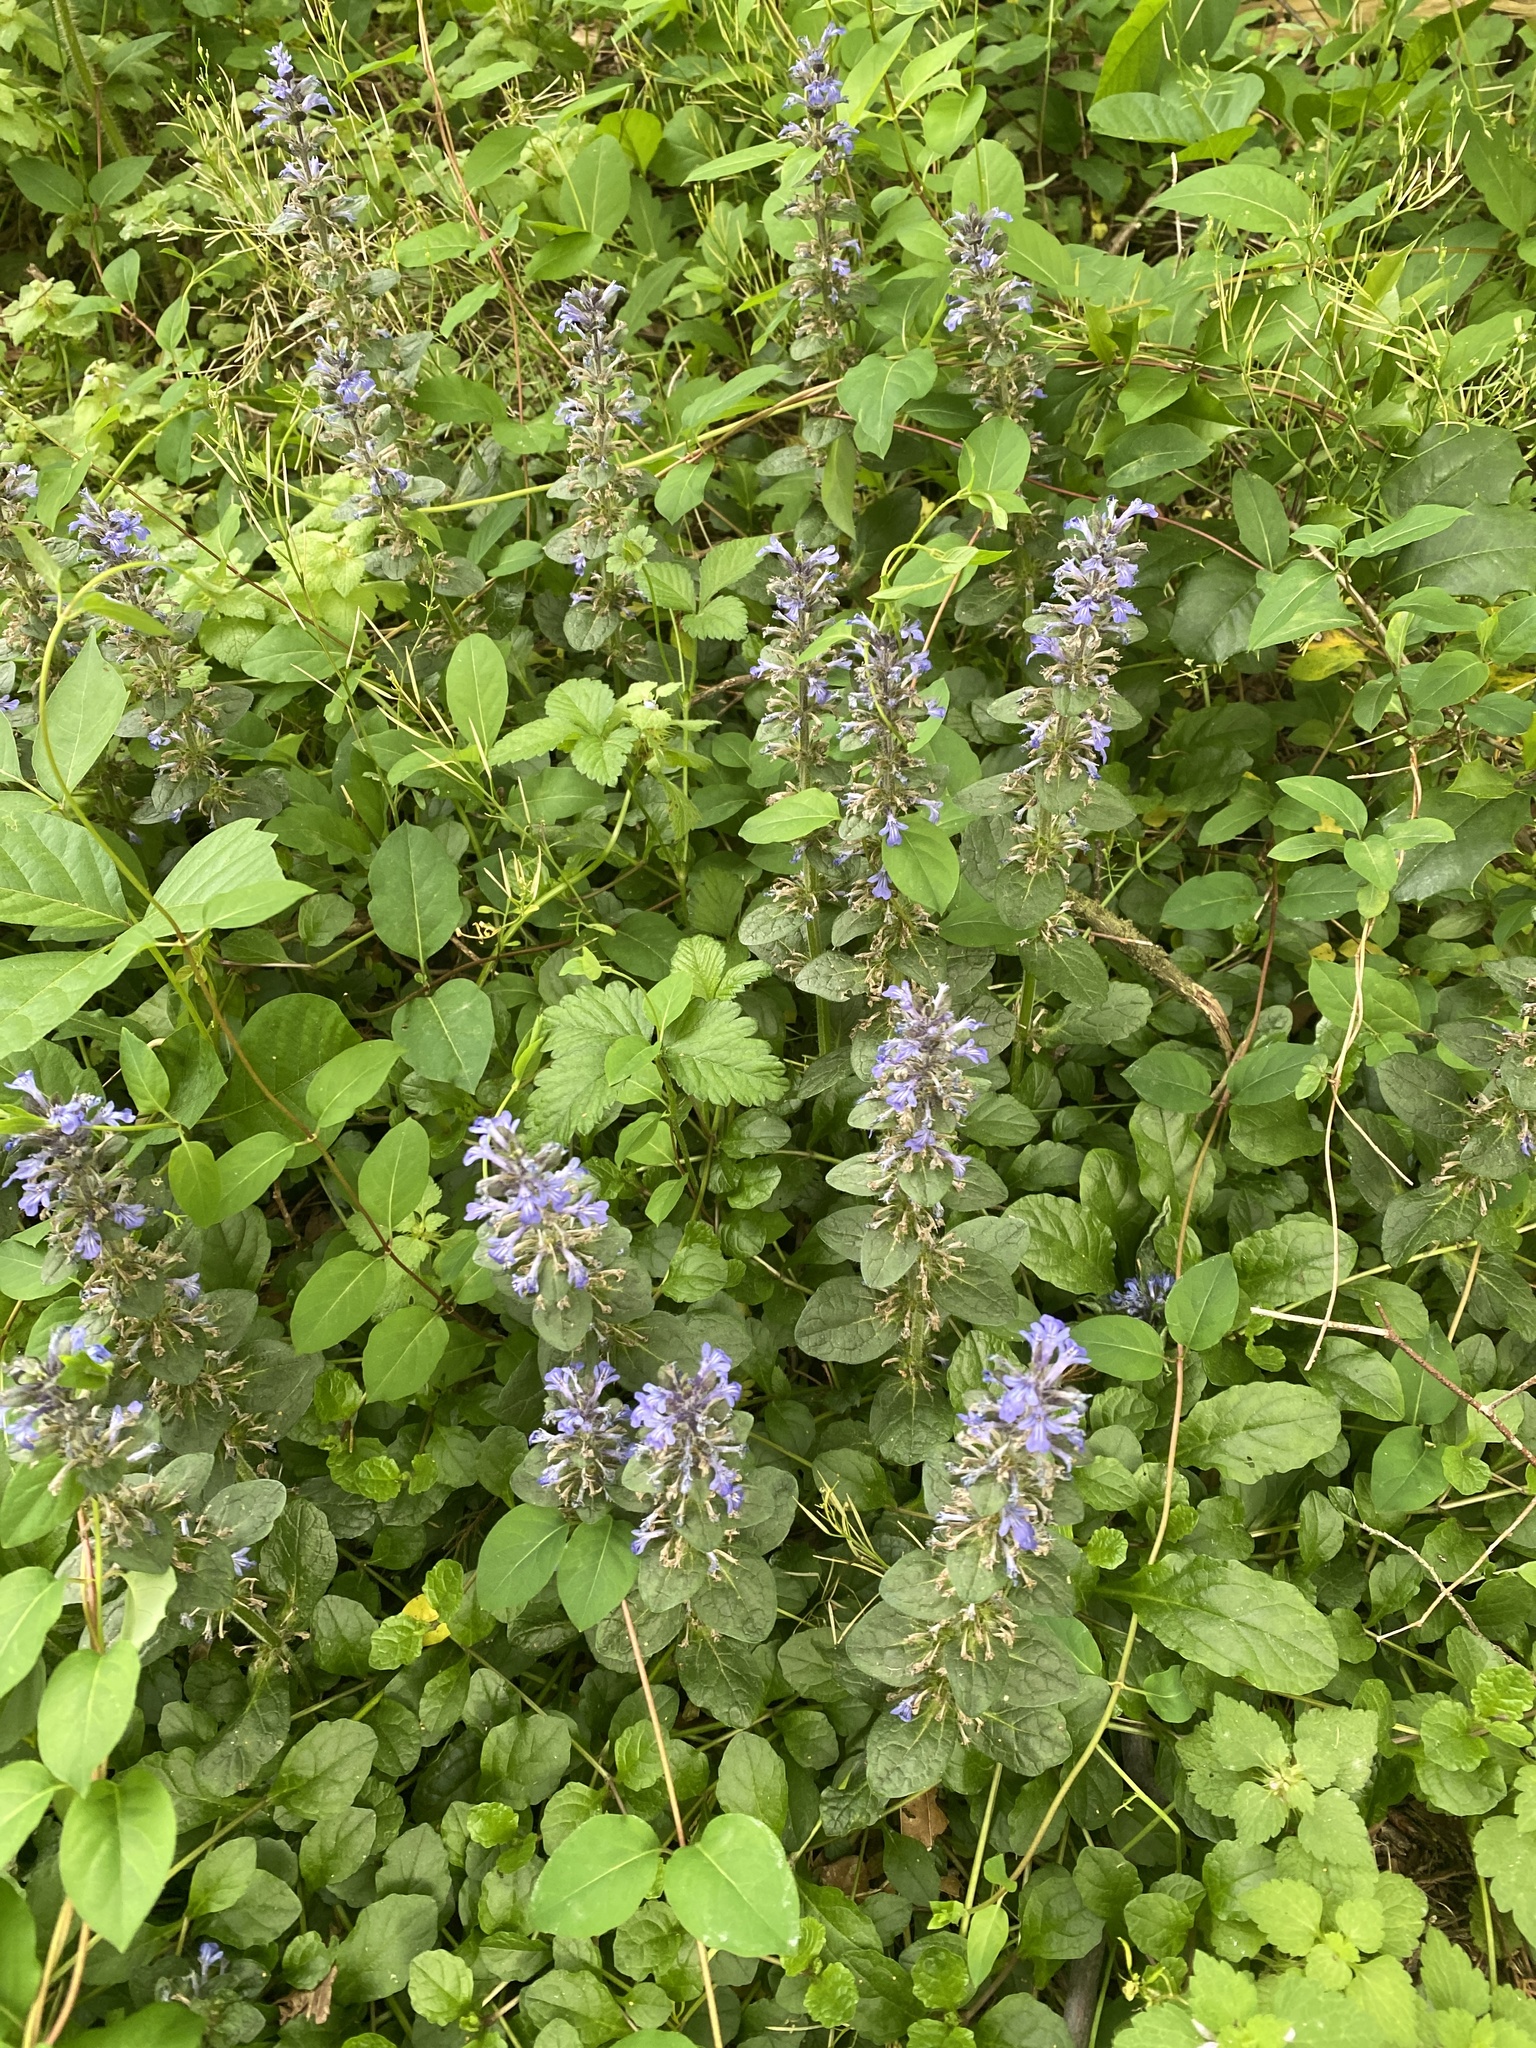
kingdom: Plantae
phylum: Tracheophyta
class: Magnoliopsida
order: Lamiales
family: Lamiaceae
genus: Ajuga
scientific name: Ajuga reptans
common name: Bugle
